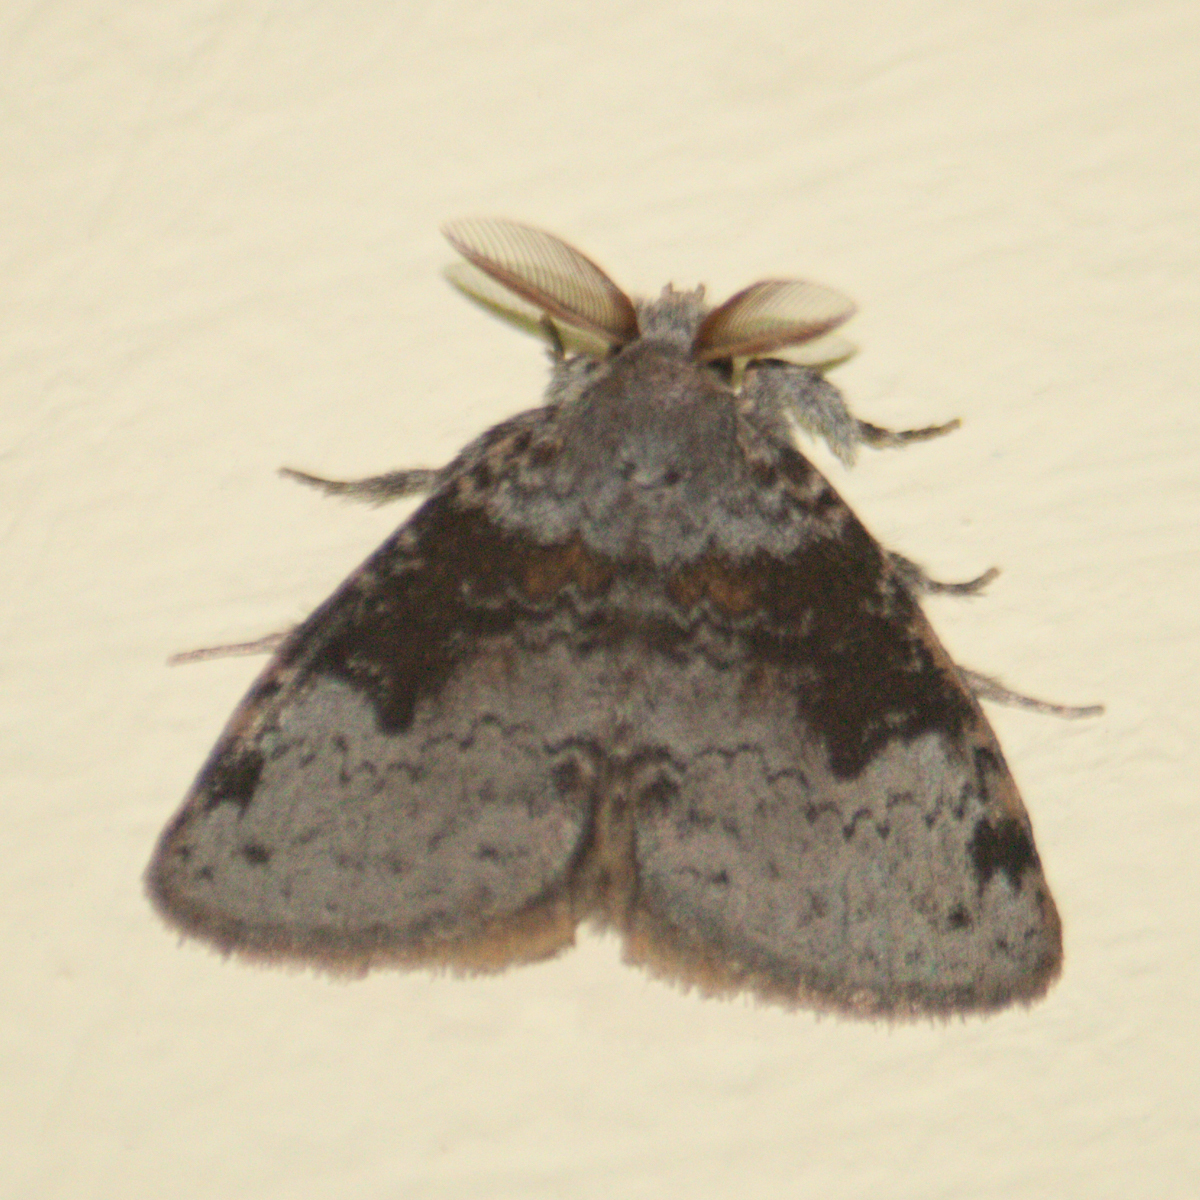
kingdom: Animalia
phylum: Arthropoda
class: Insecta
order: Lepidoptera
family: Erebidae
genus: Ilema
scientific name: Ilema costalis
